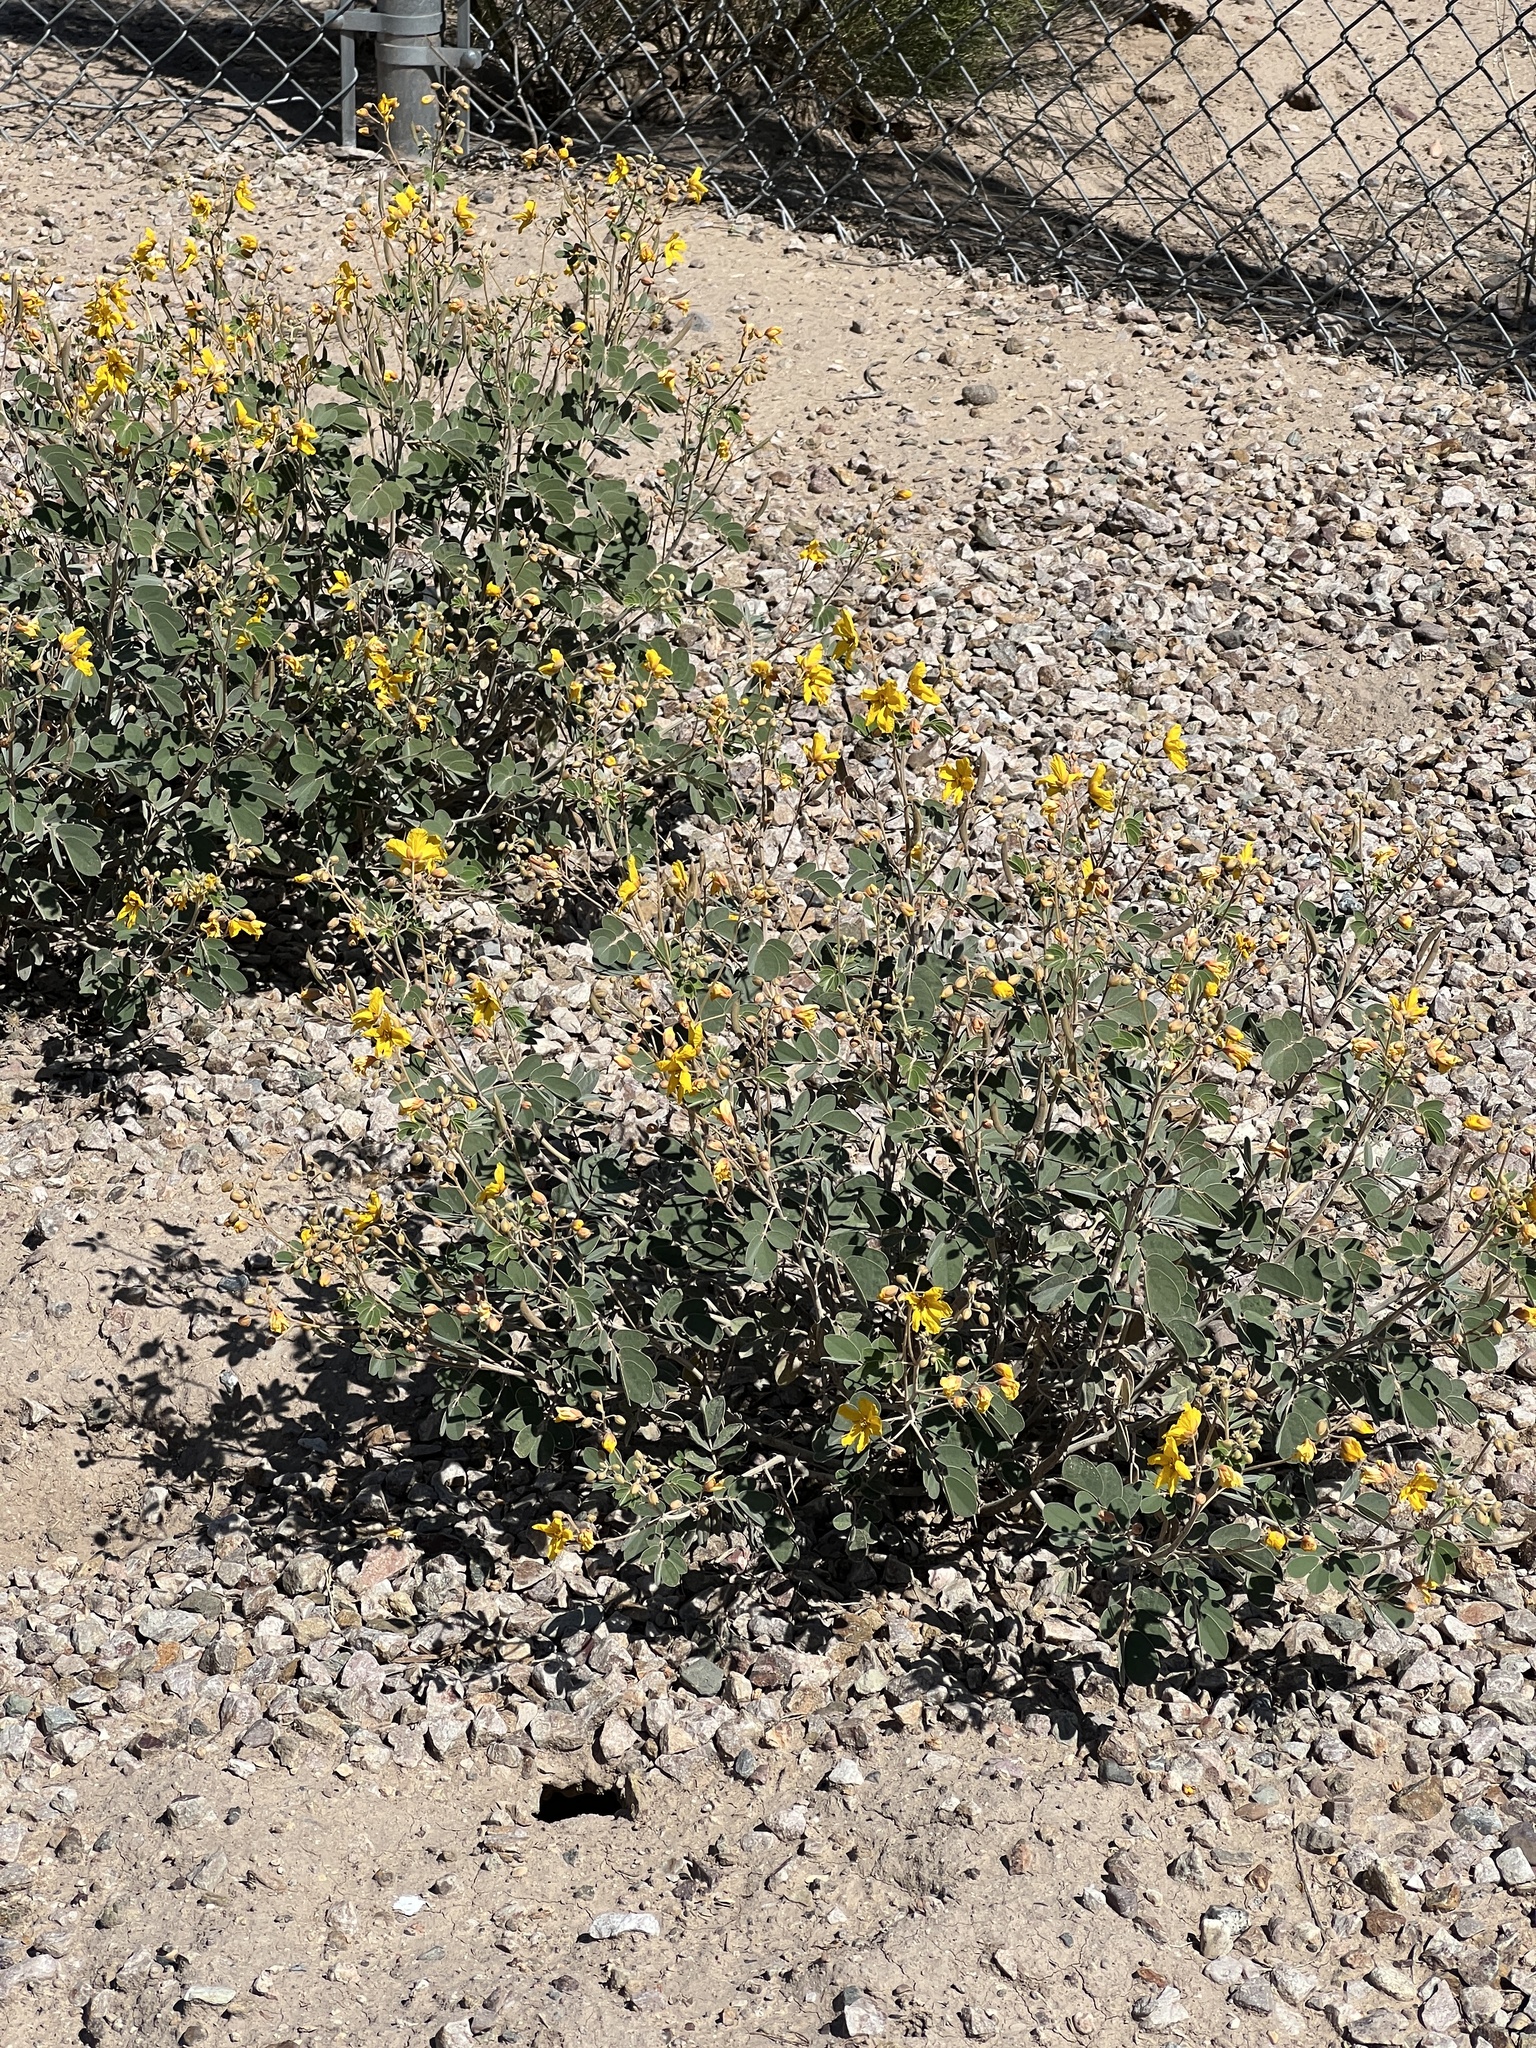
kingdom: Plantae
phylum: Tracheophyta
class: Magnoliopsida
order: Fabales
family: Fabaceae
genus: Senna
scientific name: Senna covesii
